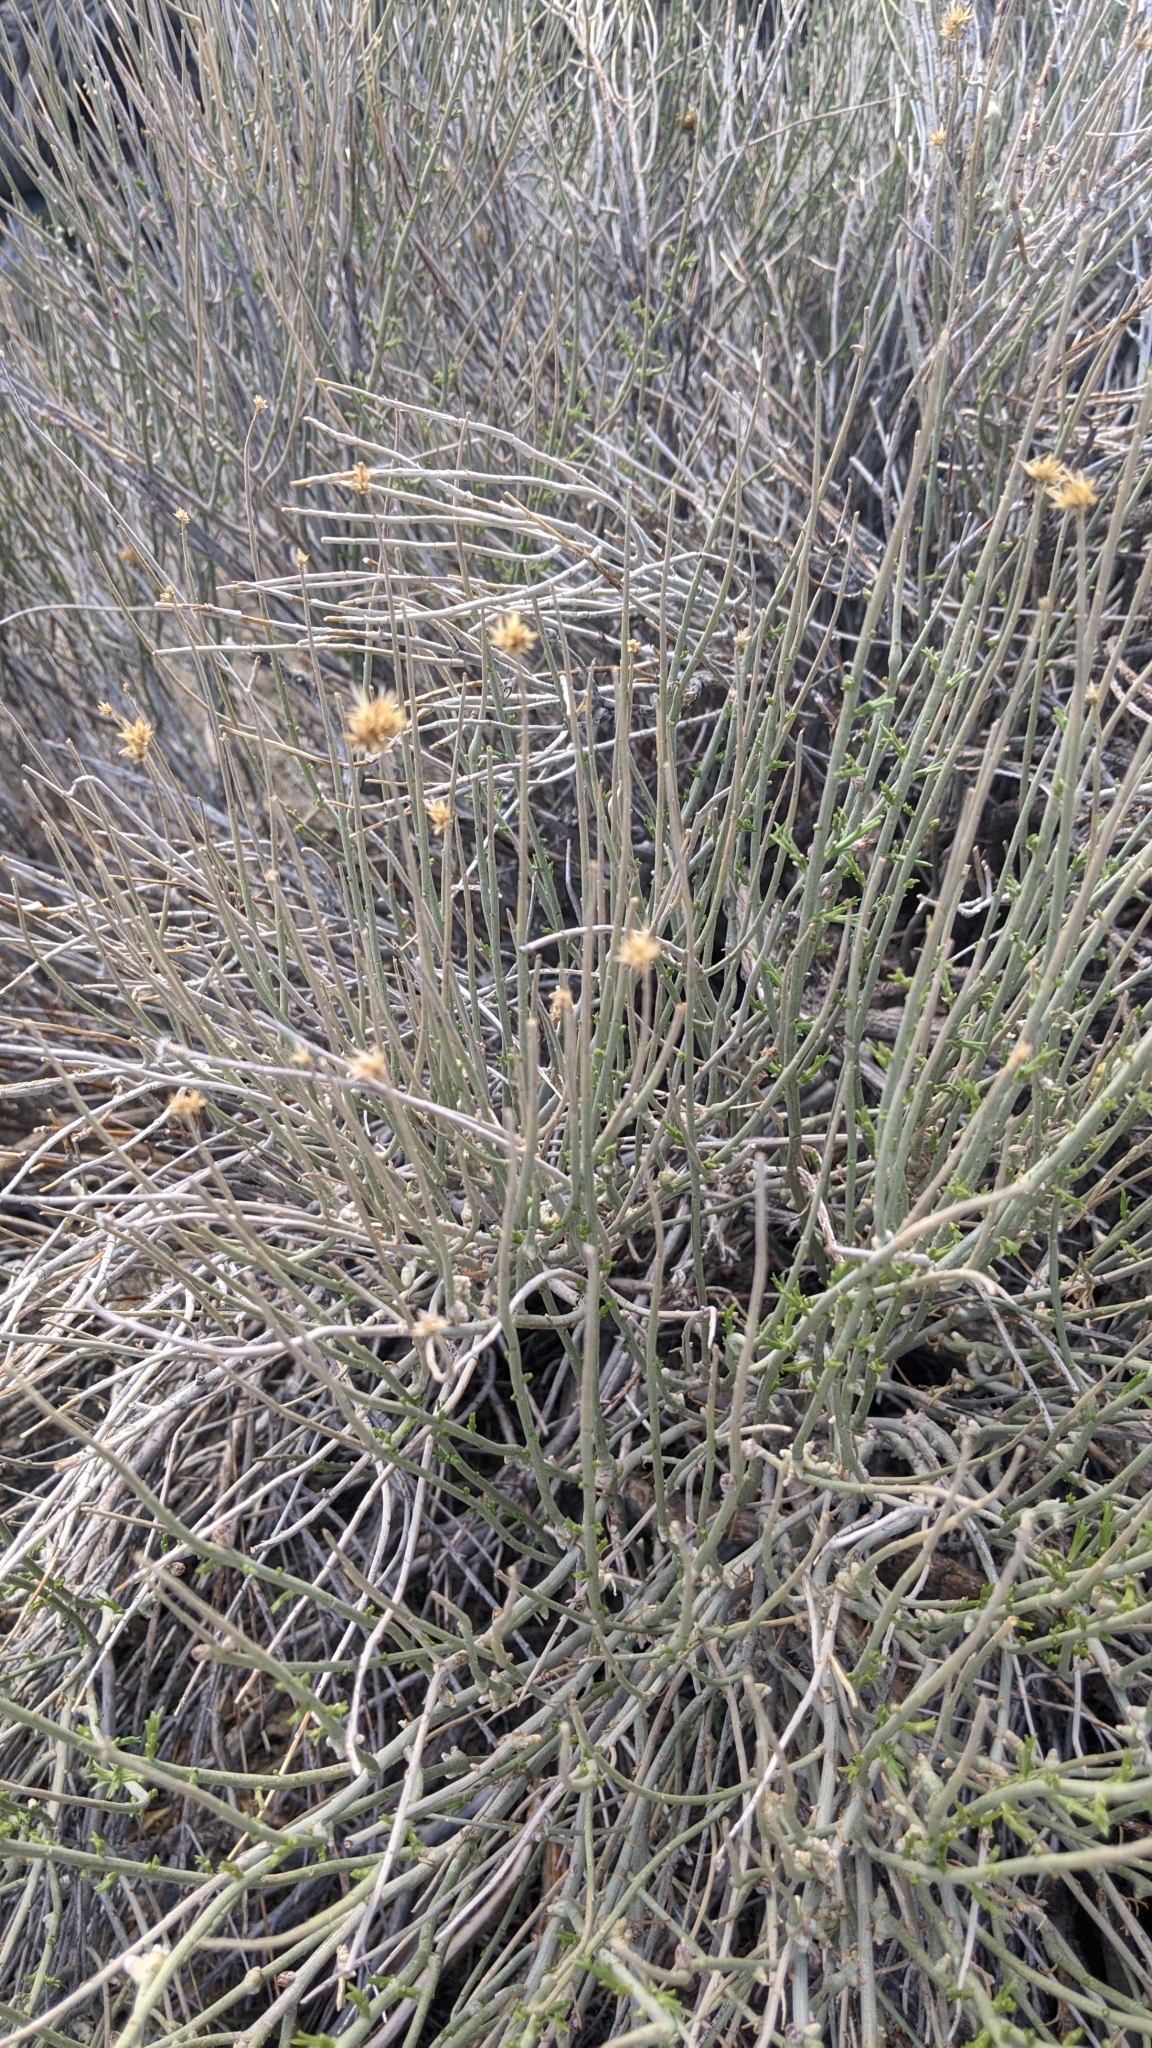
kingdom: Plantae
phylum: Tracheophyta
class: Magnoliopsida
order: Asterales
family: Asteraceae
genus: Ericameria
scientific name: Ericameria nauseosa
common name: Rubber rabbitbrush
